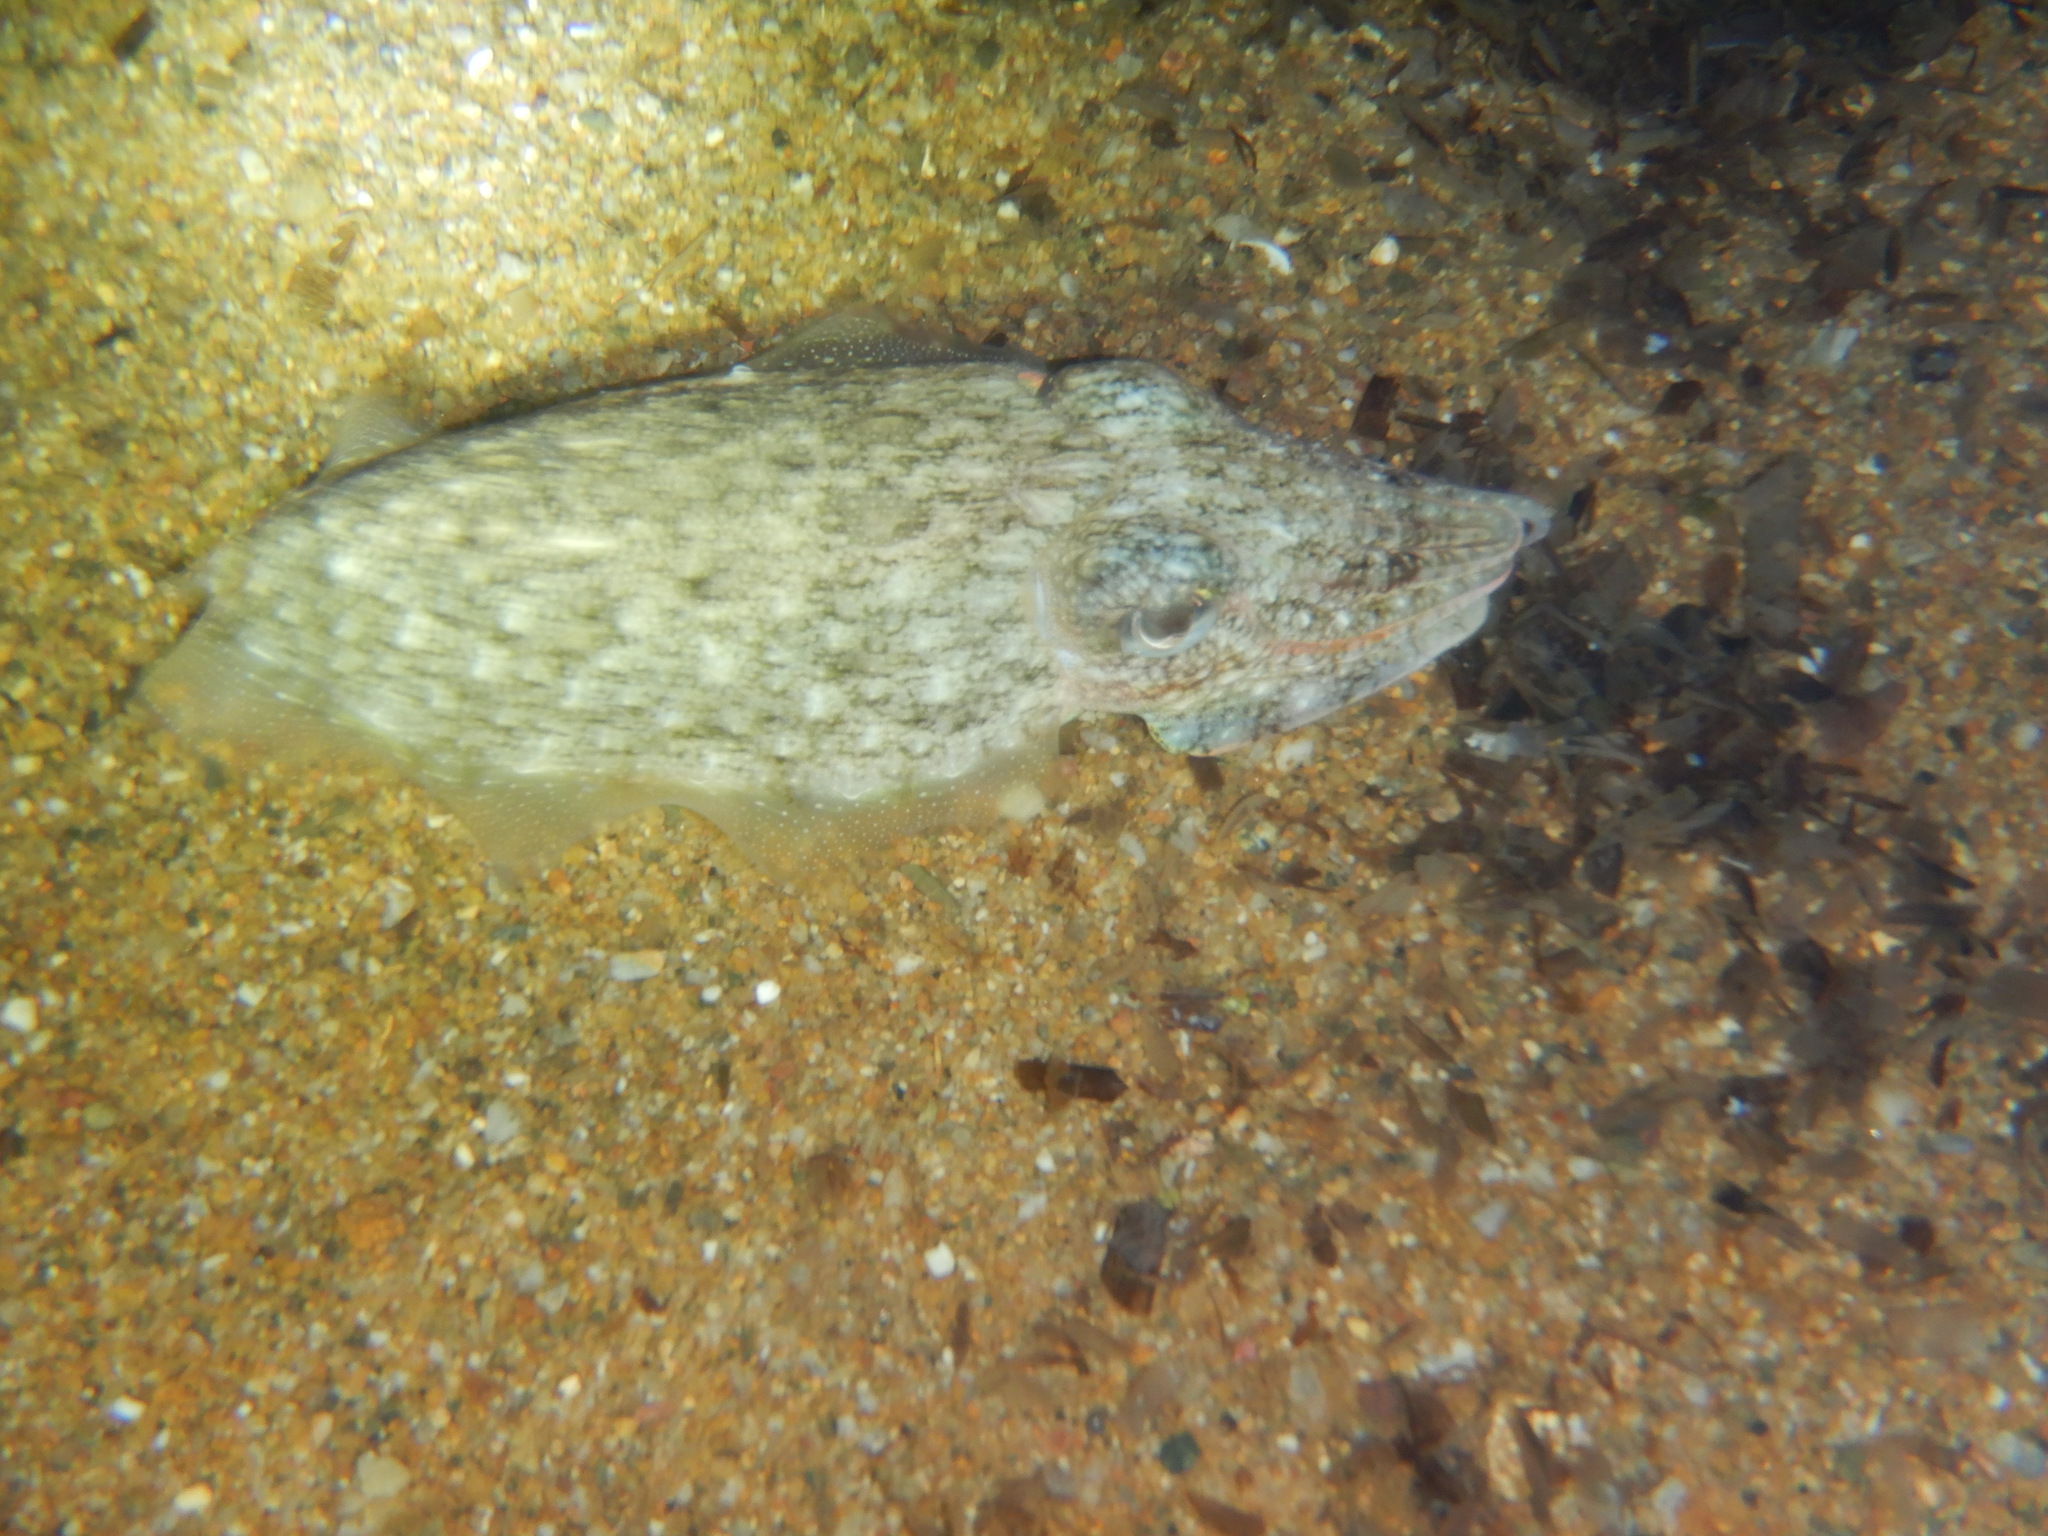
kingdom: Animalia
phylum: Mollusca
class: Cephalopoda
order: Sepiida
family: Sepiidae
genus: Sepia
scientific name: Sepia officinalis
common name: Common cuttlefish
